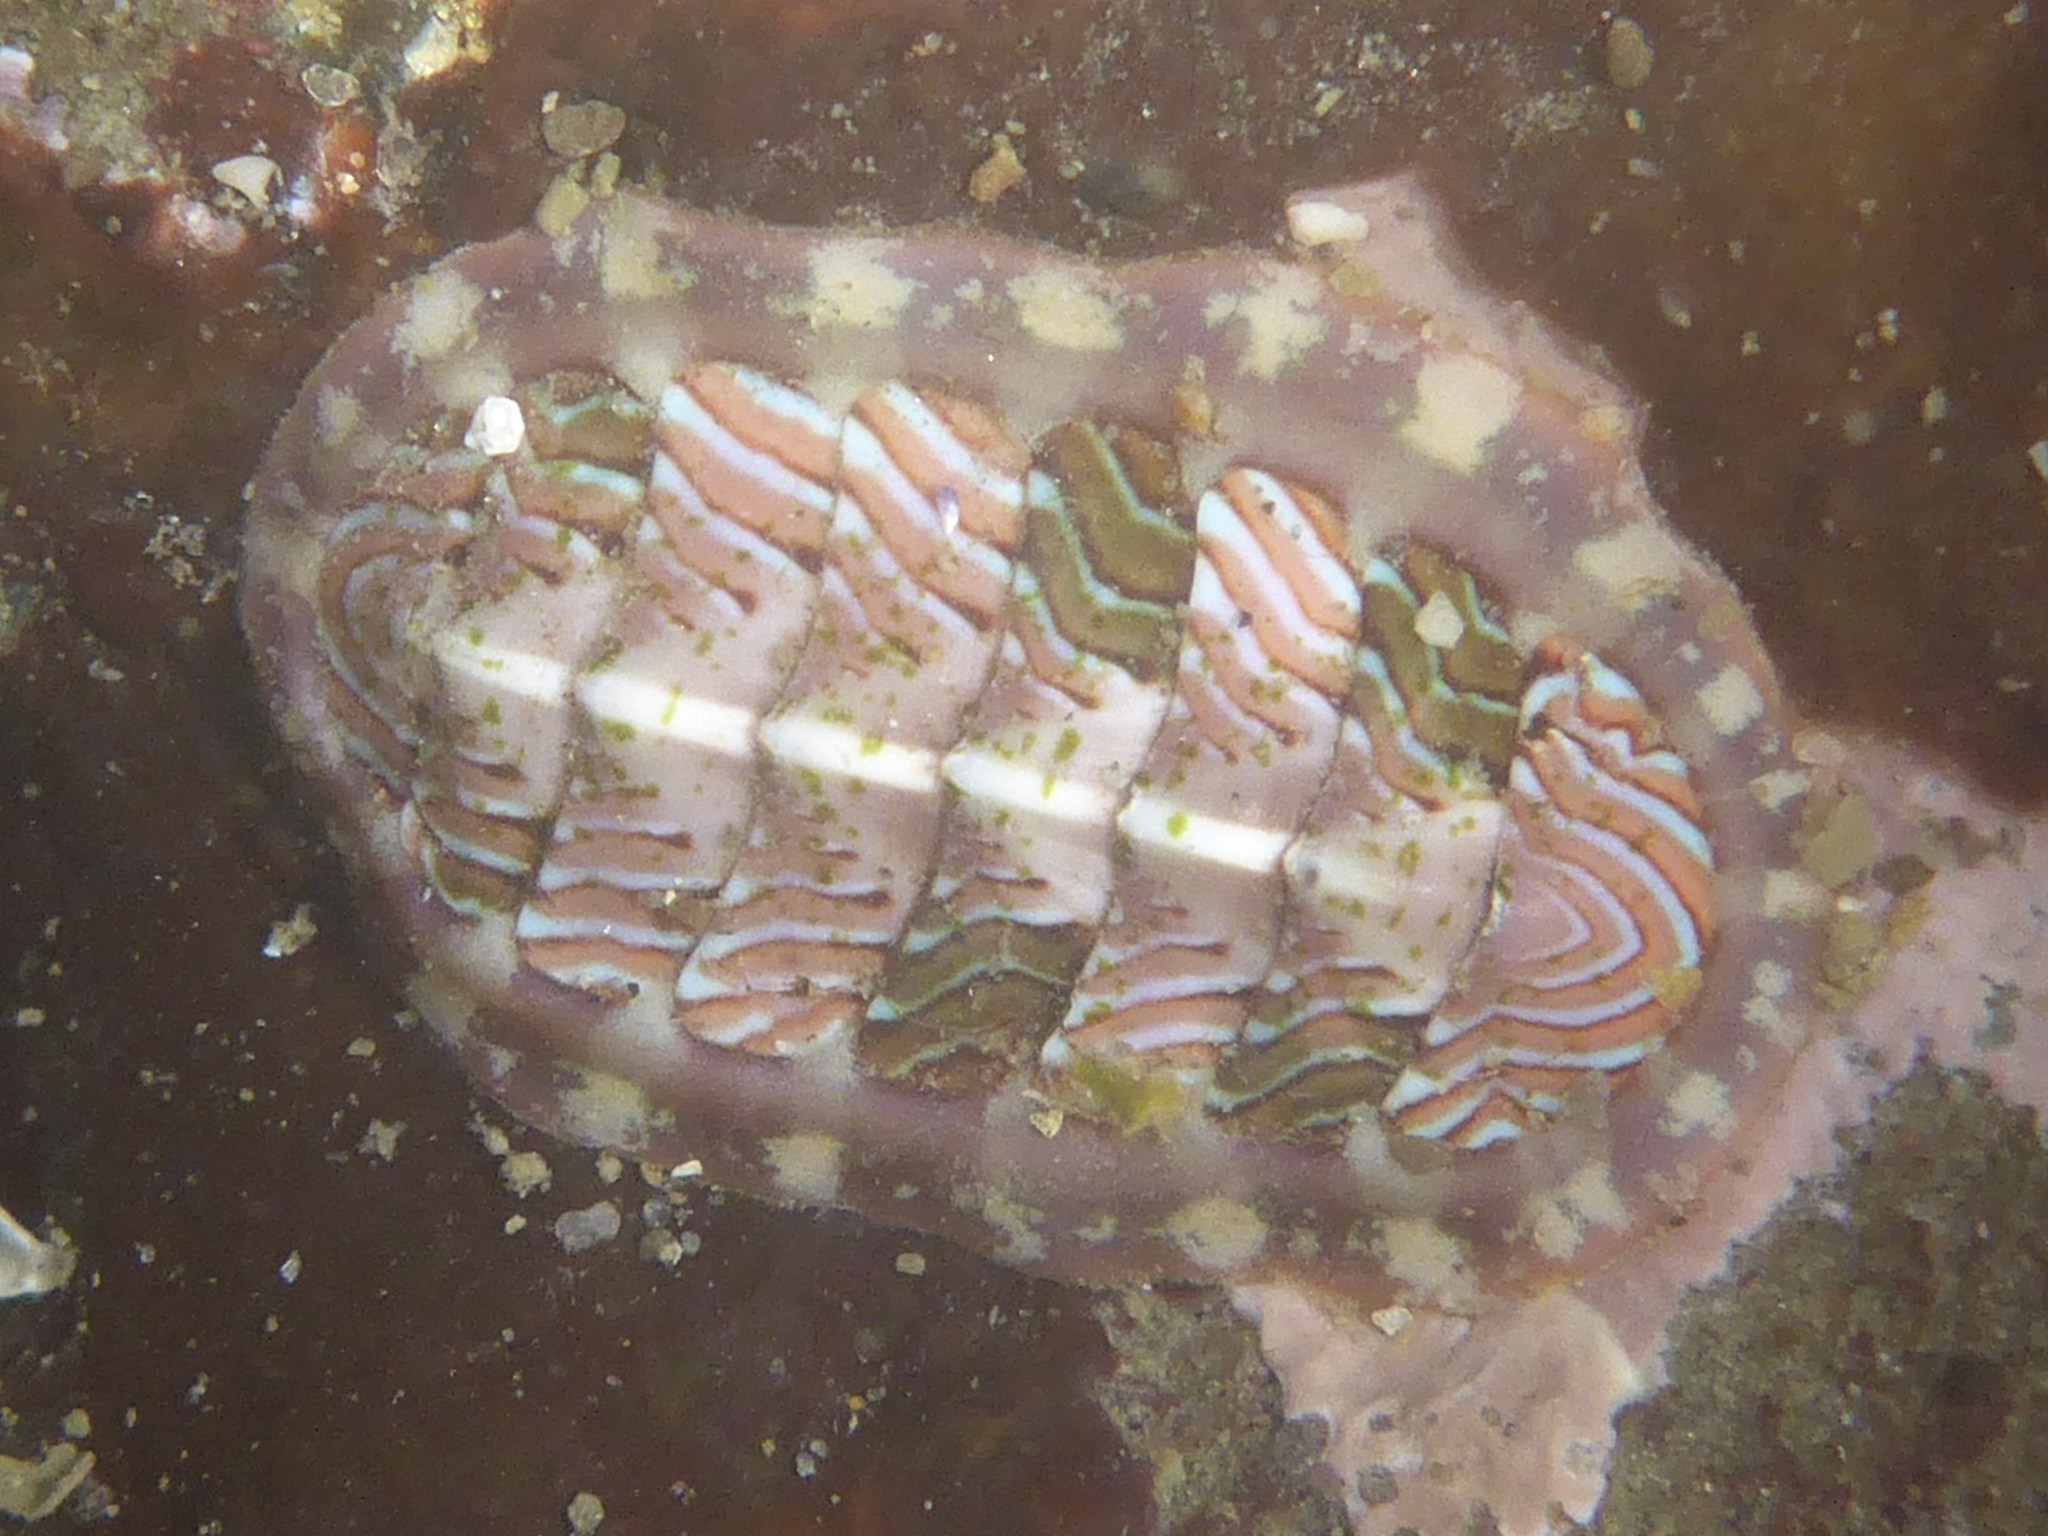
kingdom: Animalia
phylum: Mollusca
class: Polyplacophora
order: Chitonida
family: Tonicellidae
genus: Tonicella
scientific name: Tonicella lineata
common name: Lined chiton
